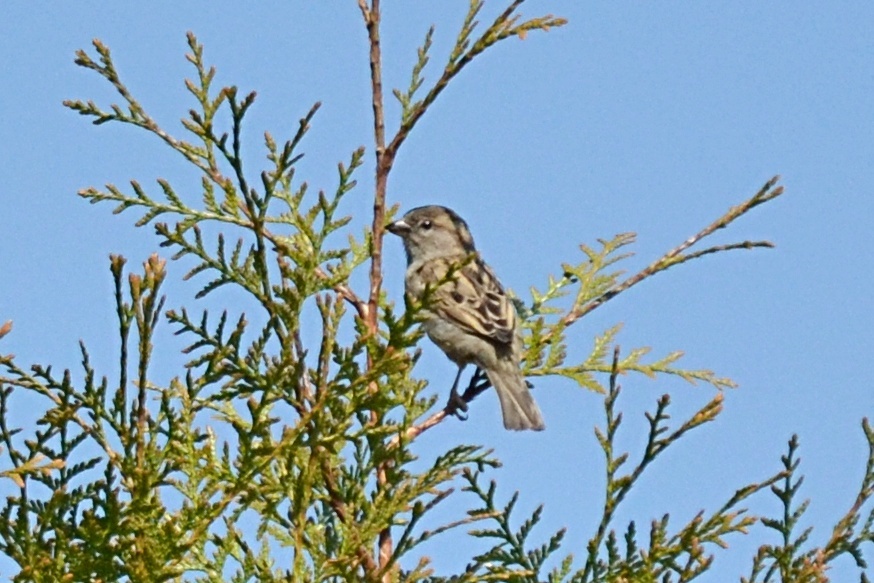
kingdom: Animalia
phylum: Chordata
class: Aves
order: Passeriformes
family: Passeridae
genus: Passer
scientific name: Passer domesticus
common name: House sparrow
